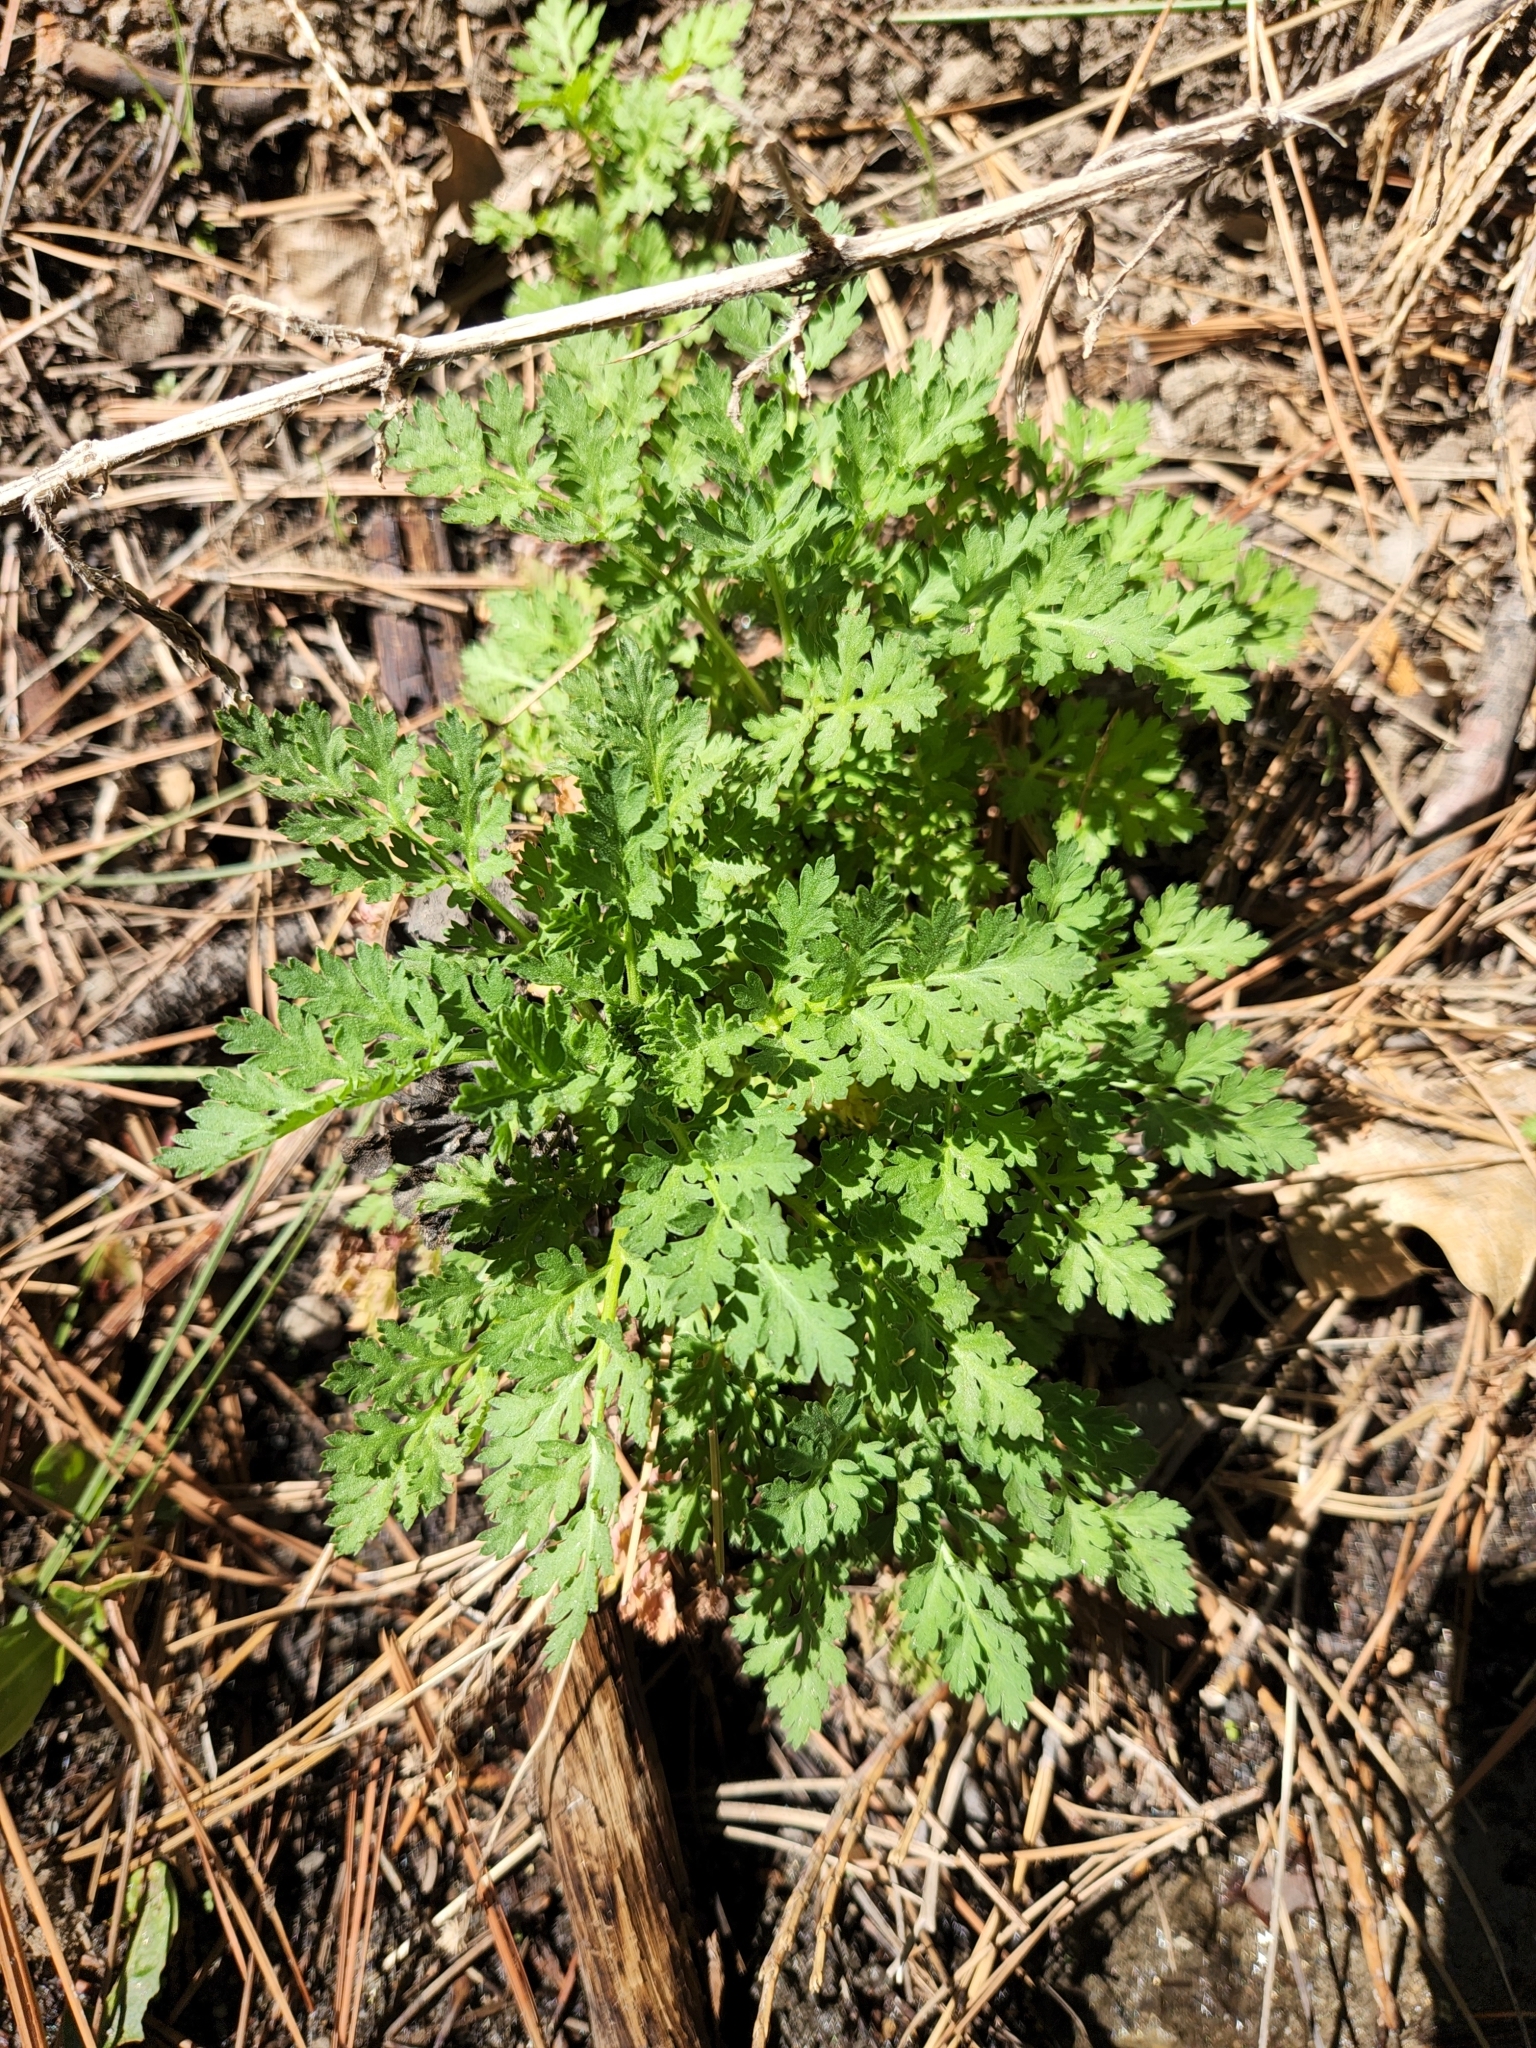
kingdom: Plantae
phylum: Tracheophyta
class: Magnoliopsida
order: Asterales
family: Asteraceae
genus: Tanacetum
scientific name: Tanacetum parthenium
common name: Feverfew
